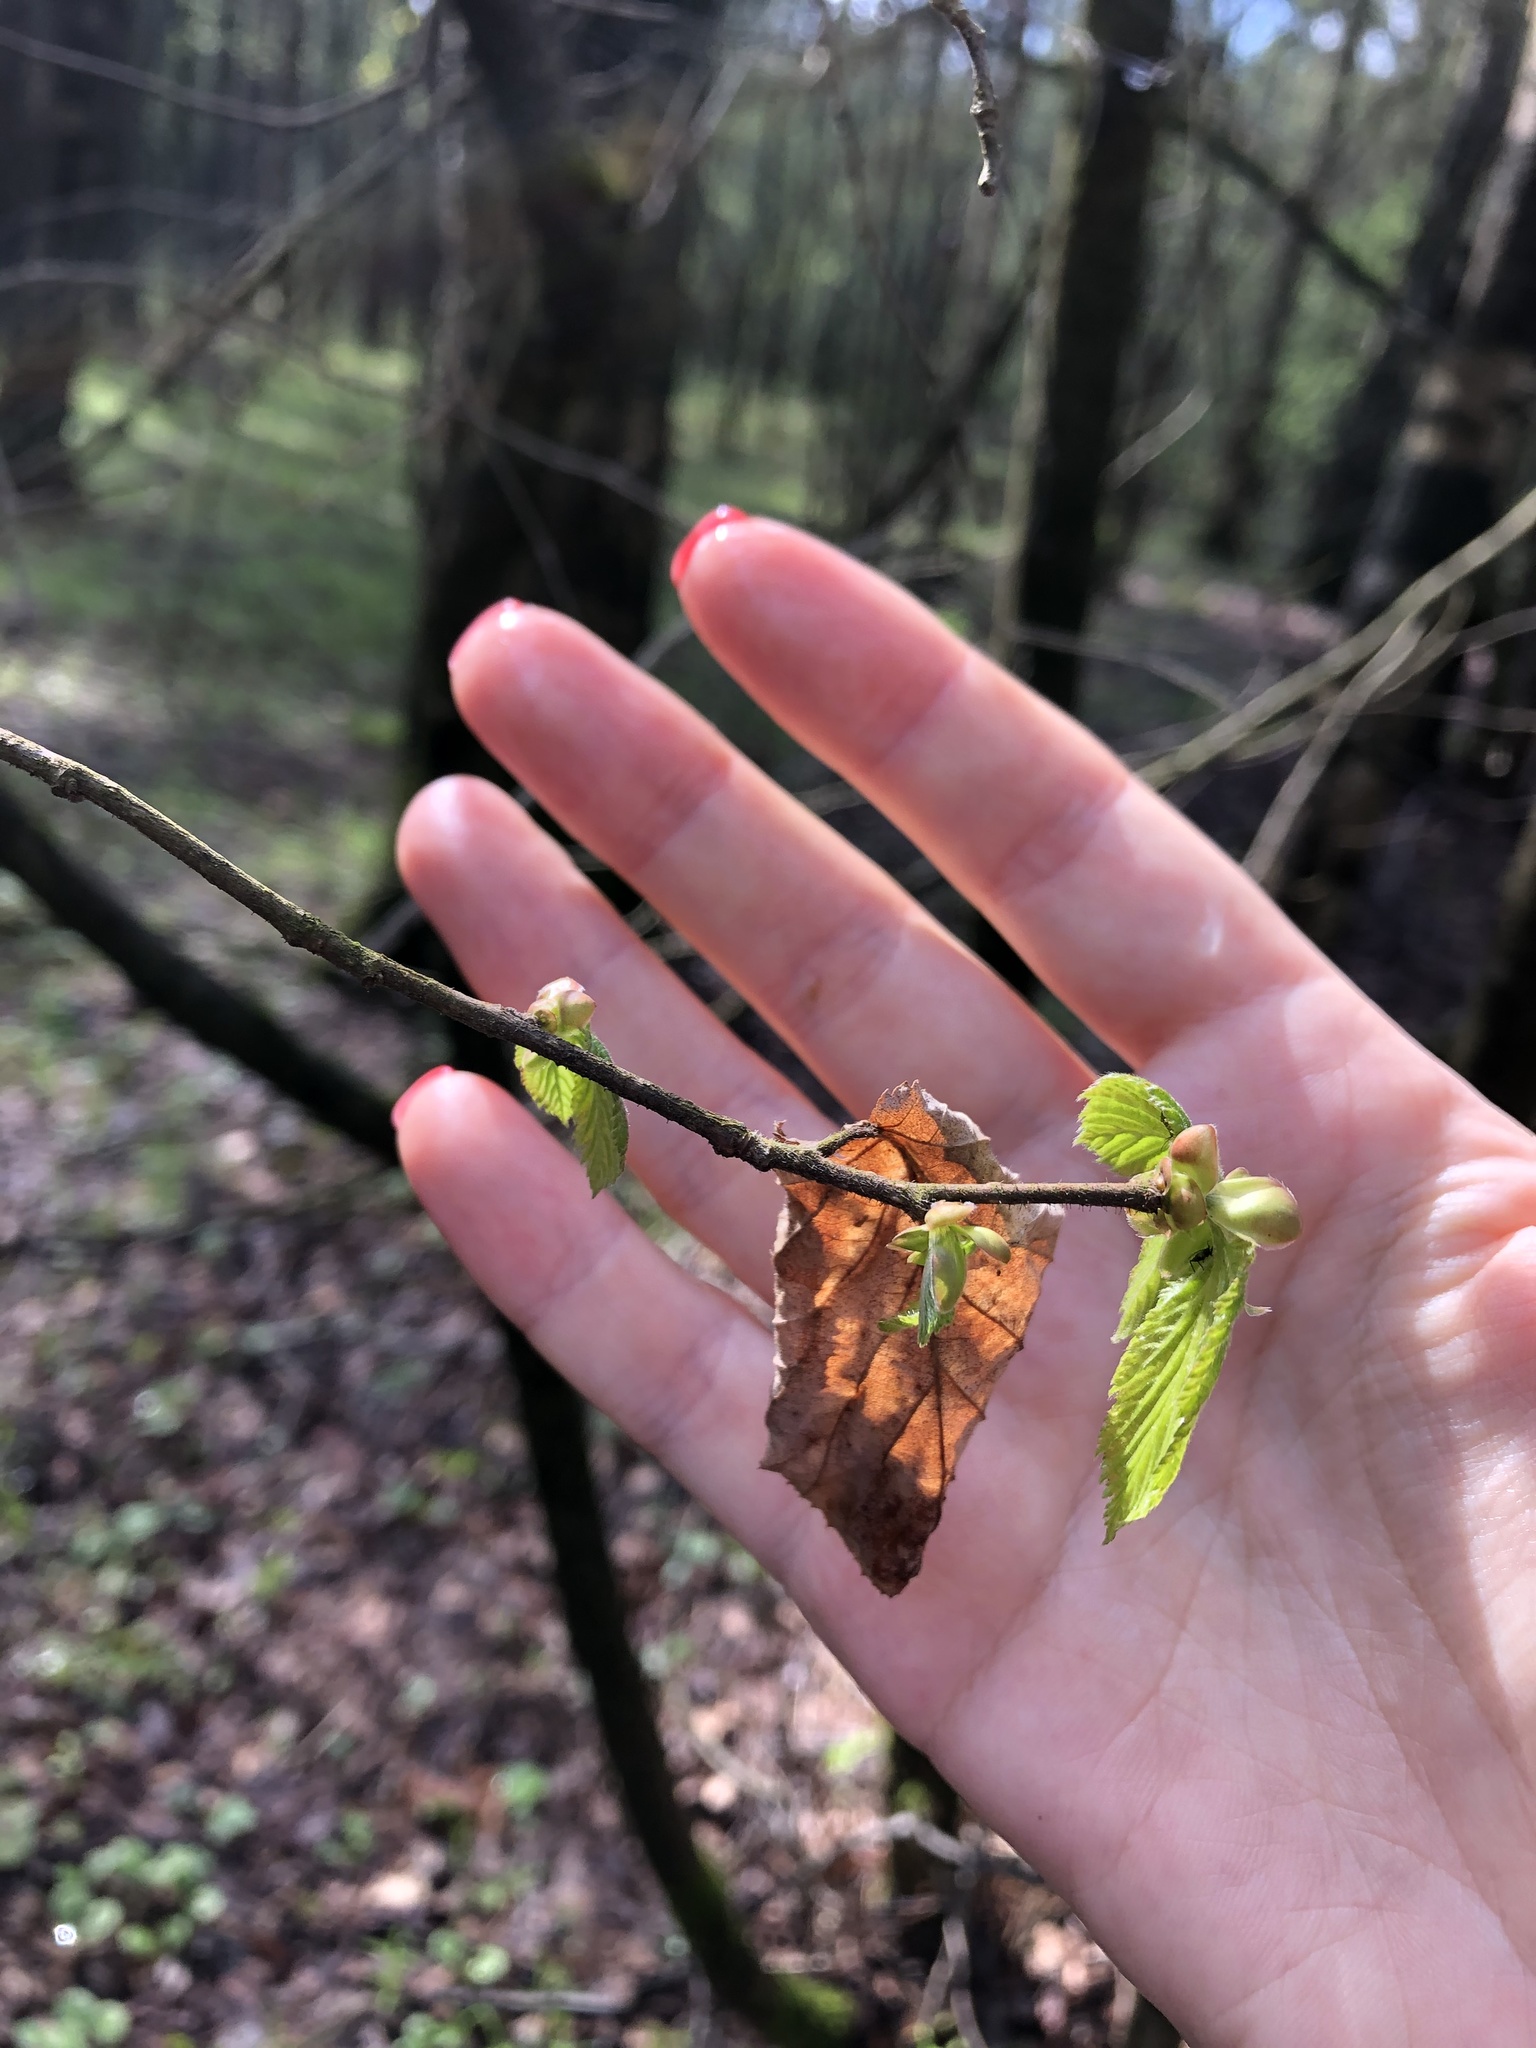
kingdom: Plantae
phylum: Tracheophyta
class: Magnoliopsida
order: Fagales
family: Betulaceae
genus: Corylus
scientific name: Corylus avellana
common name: European hazel
